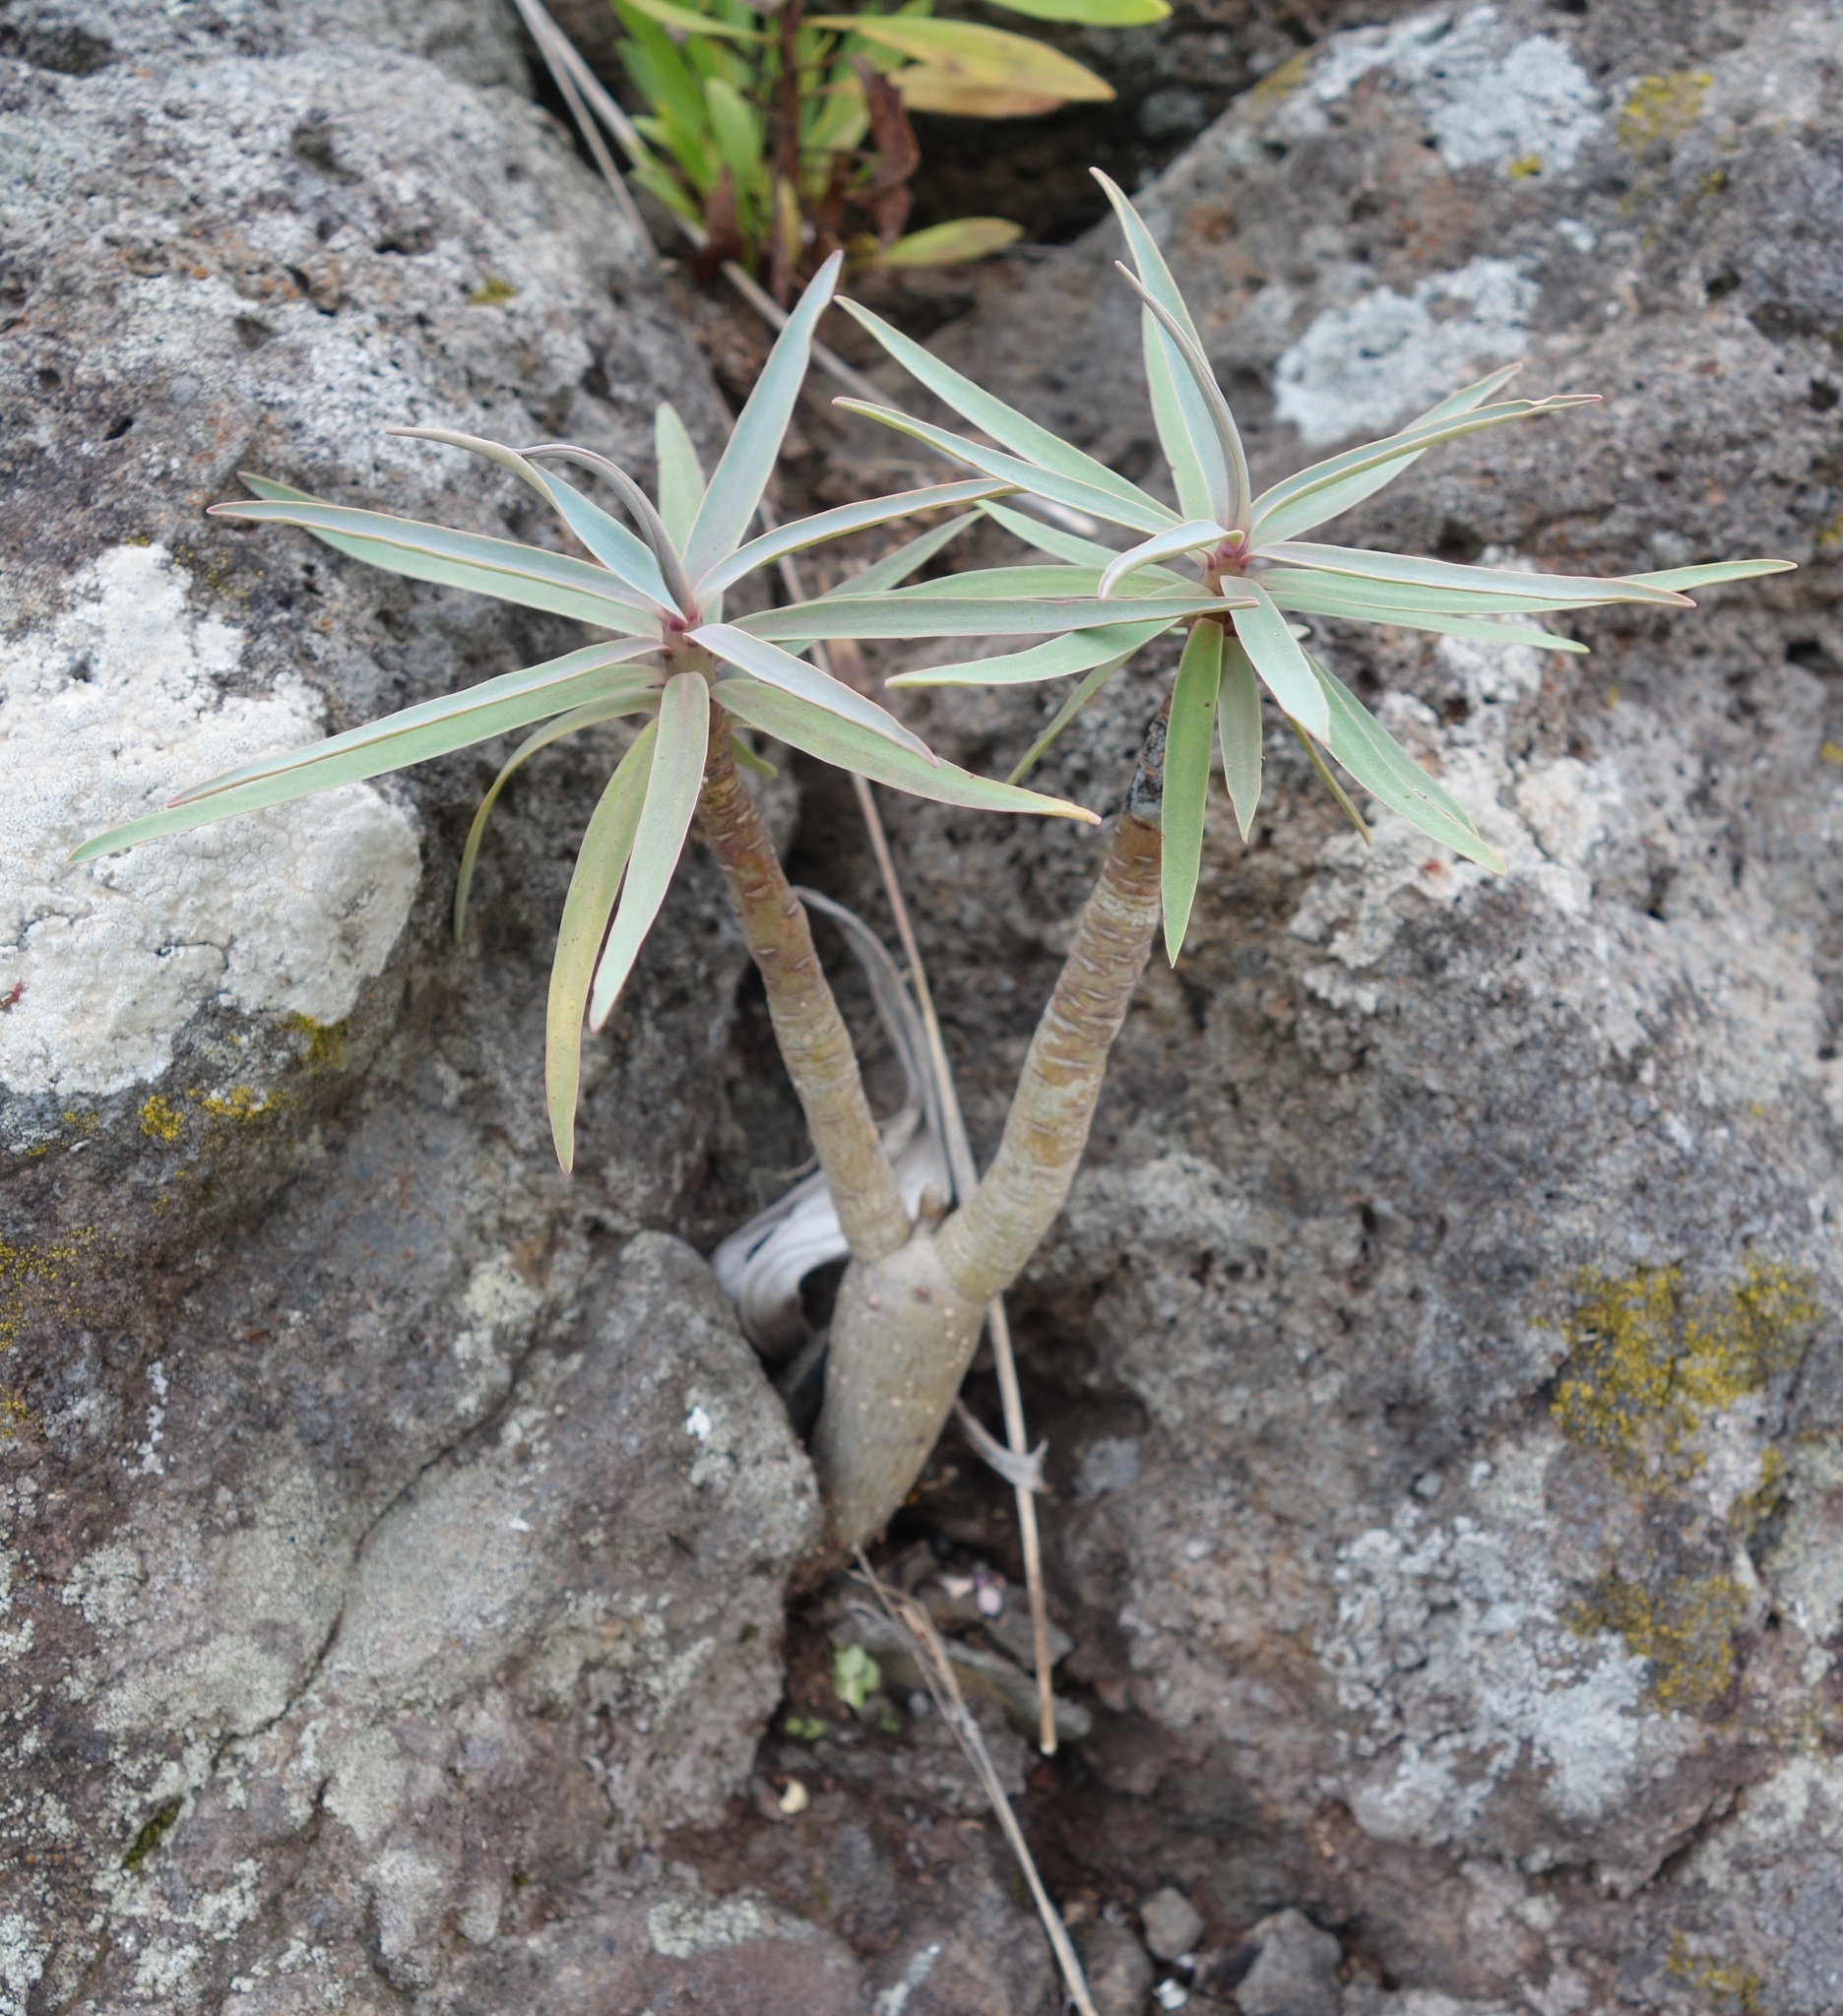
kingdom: Plantae
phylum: Tracheophyta
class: Magnoliopsida
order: Malpighiales
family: Euphorbiaceae
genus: Euphorbia
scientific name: Euphorbia piscatoria
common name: Fish-stunning spurge
